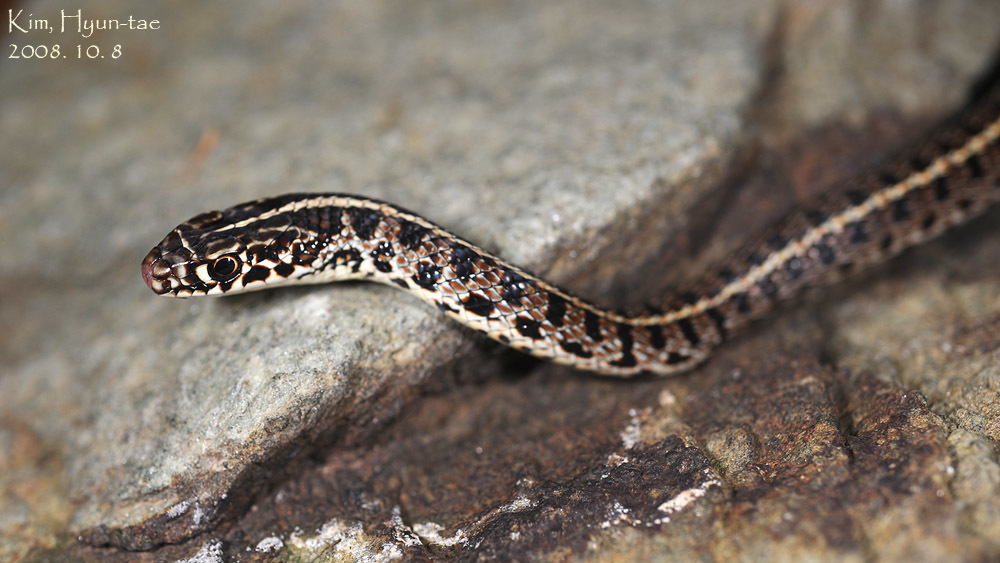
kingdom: Animalia
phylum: Chordata
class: Squamata
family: Colubridae
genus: Orientocoluber
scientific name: Orientocoluber spinalis
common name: Slender racer
